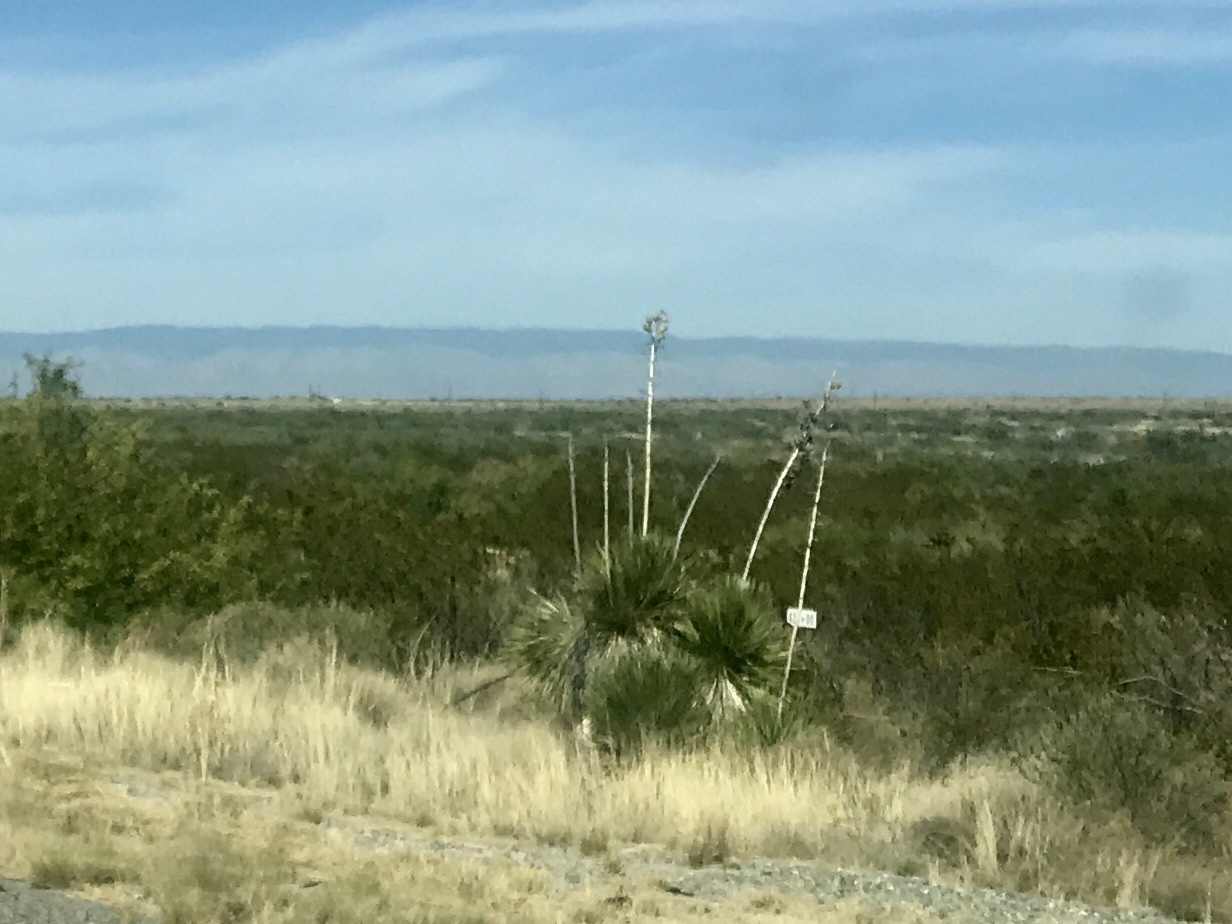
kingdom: Plantae
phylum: Tracheophyta
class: Liliopsida
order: Asparagales
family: Asparagaceae
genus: Yucca
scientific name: Yucca elata
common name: Palmella
